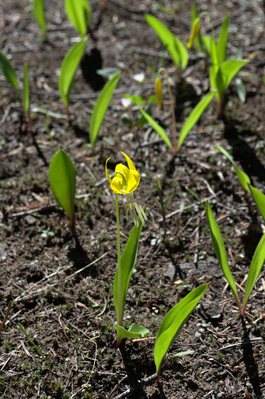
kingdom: Plantae
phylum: Tracheophyta
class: Liliopsida
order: Liliales
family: Liliaceae
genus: Erythronium
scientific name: Erythronium grandiflorum
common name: Avalanche-lily
